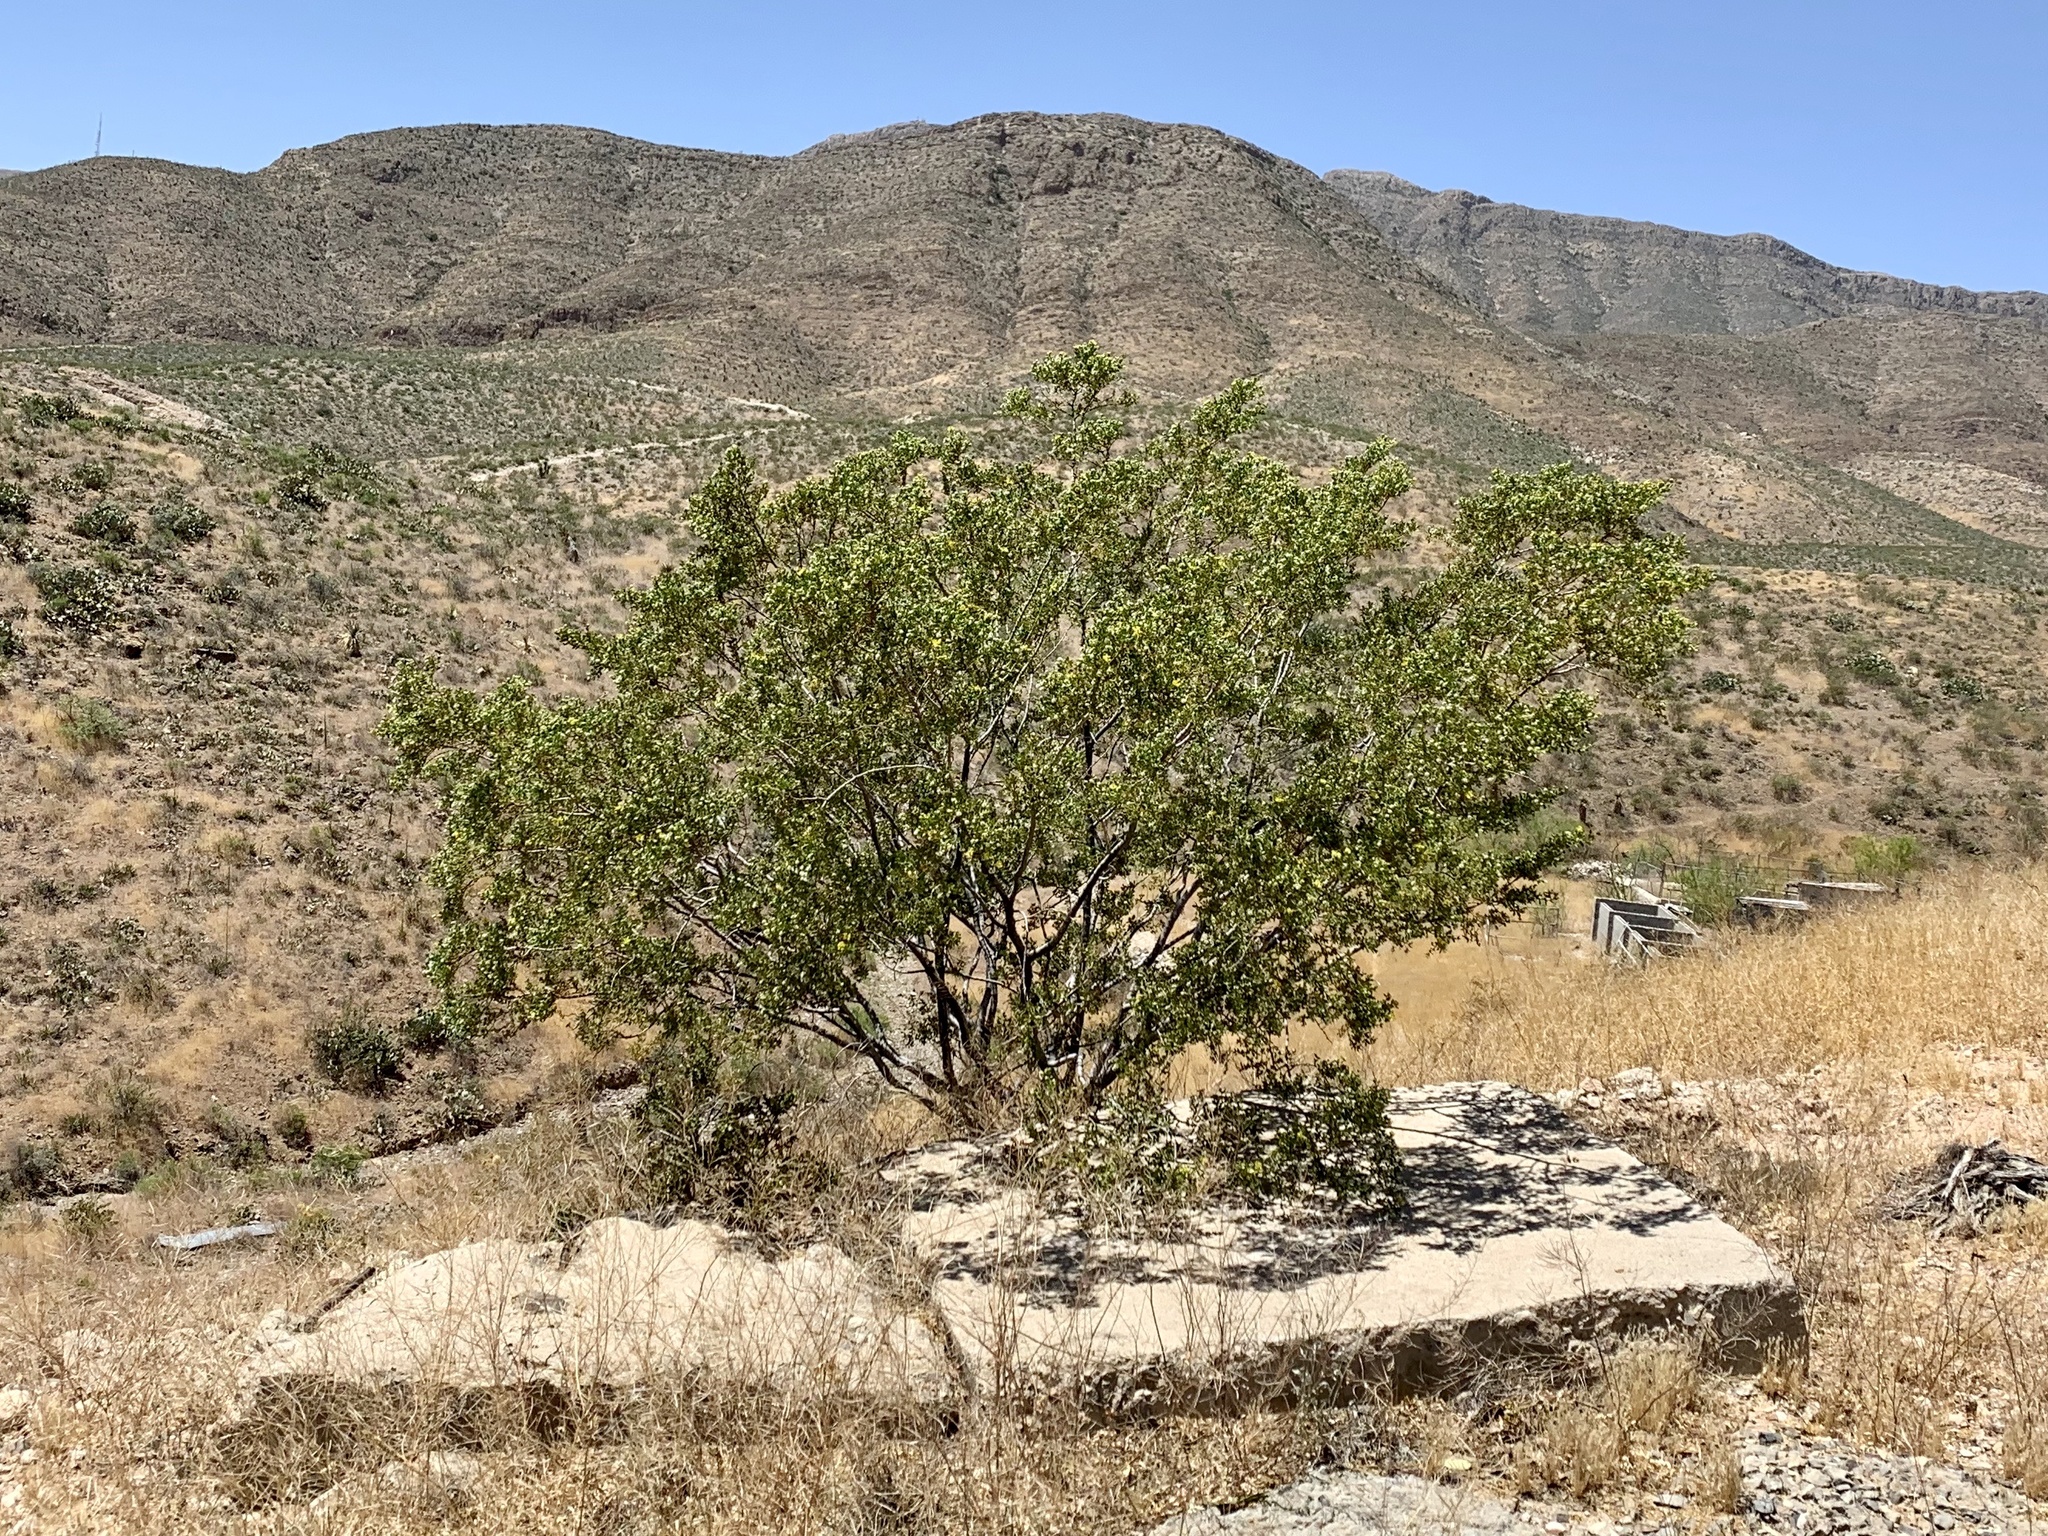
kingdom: Plantae
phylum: Tracheophyta
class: Magnoliopsida
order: Zygophyllales
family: Zygophyllaceae
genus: Larrea
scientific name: Larrea tridentata
